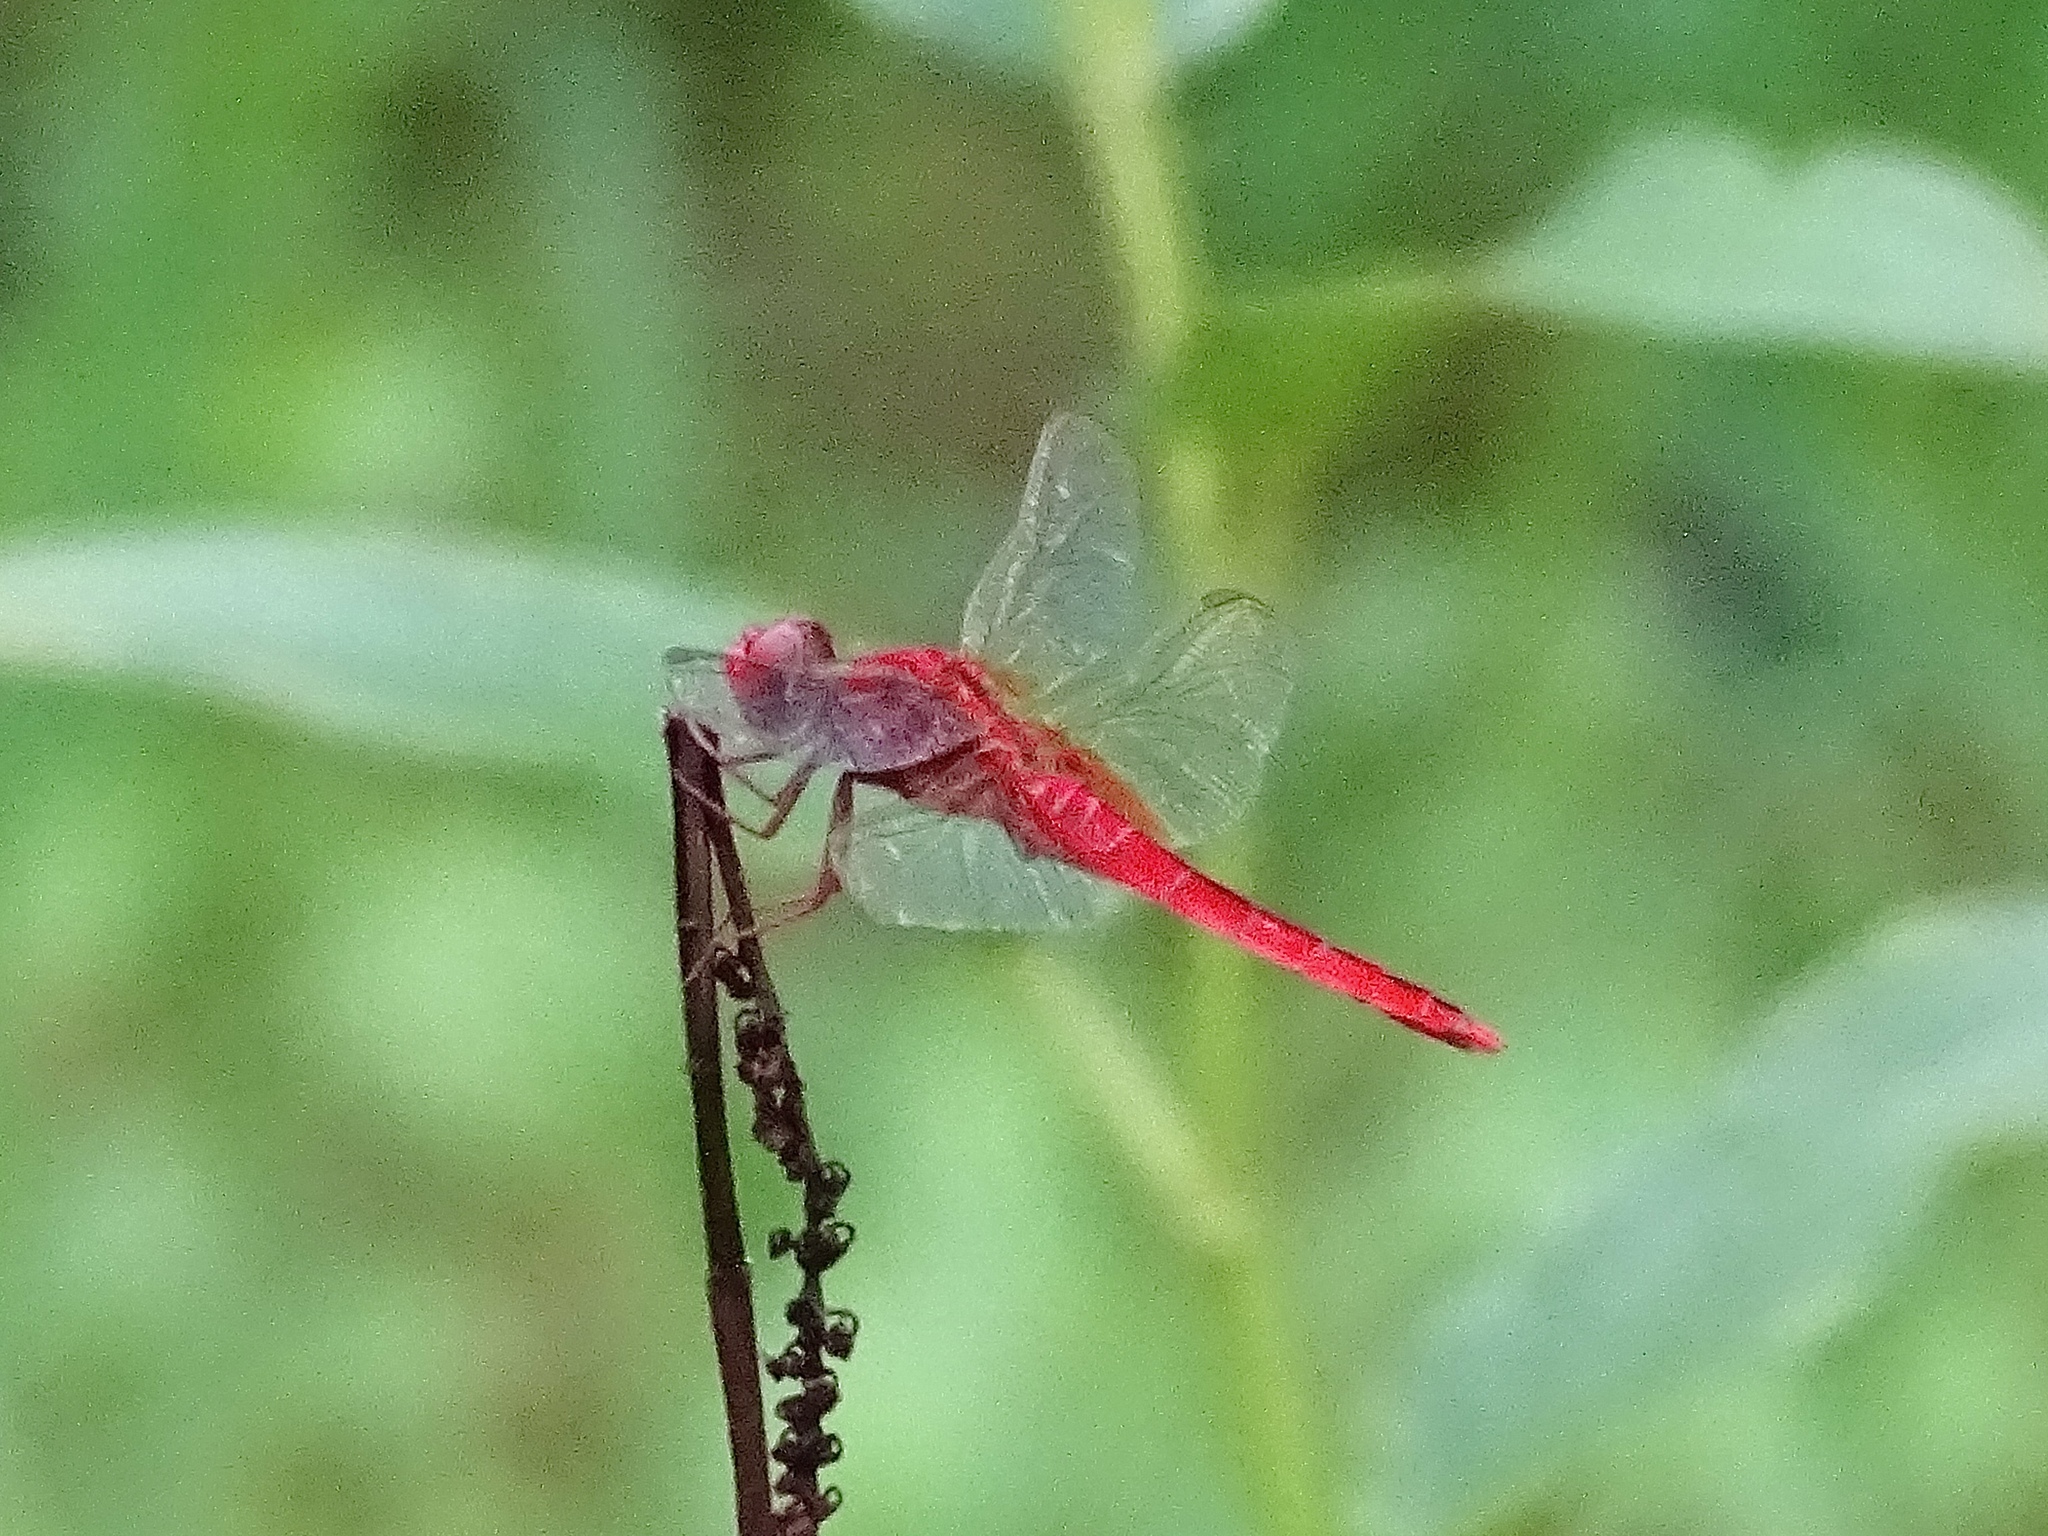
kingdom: Animalia
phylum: Arthropoda
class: Insecta
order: Odonata
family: Libellulidae
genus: Crocothemis
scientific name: Crocothemis servilia
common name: Scarlet skimmer
